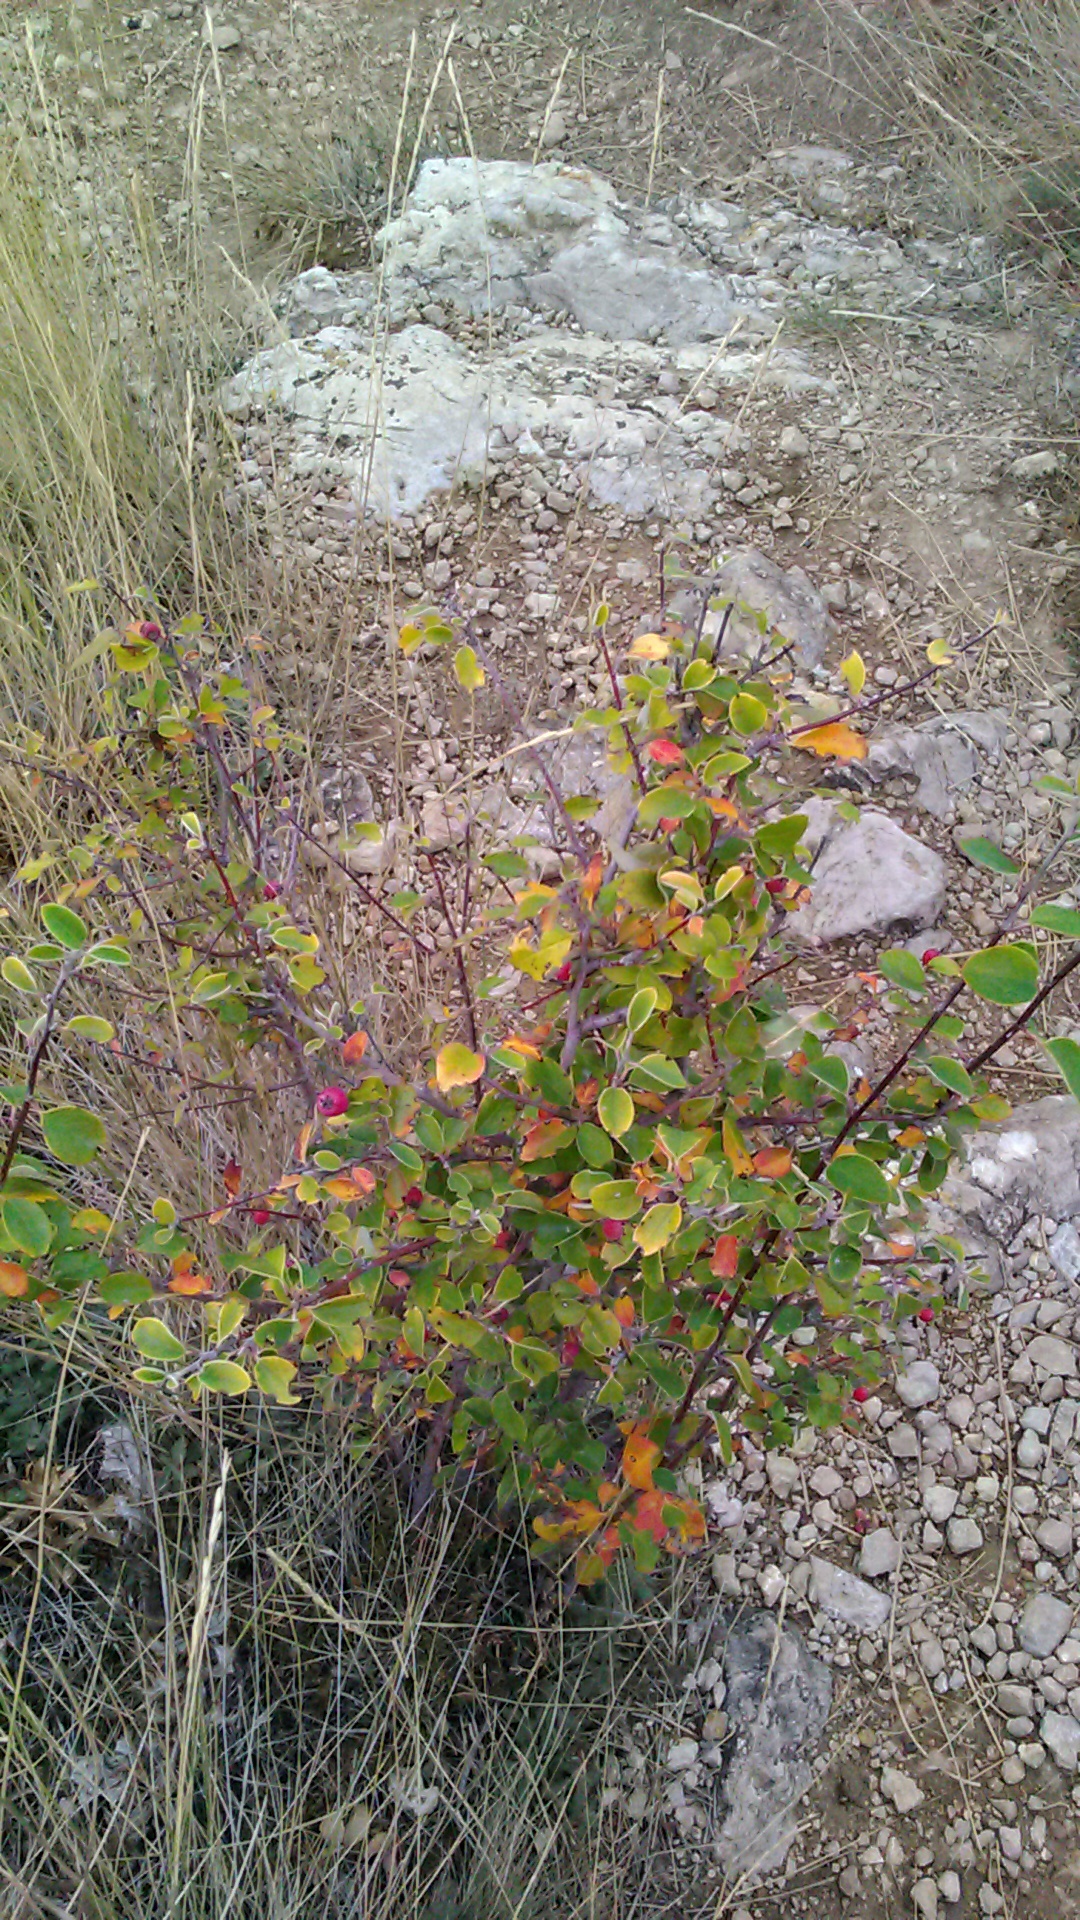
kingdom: Plantae
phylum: Tracheophyta
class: Magnoliopsida
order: Rosales
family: Rosaceae
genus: Cotoneaster
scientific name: Cotoneaster tauricus
